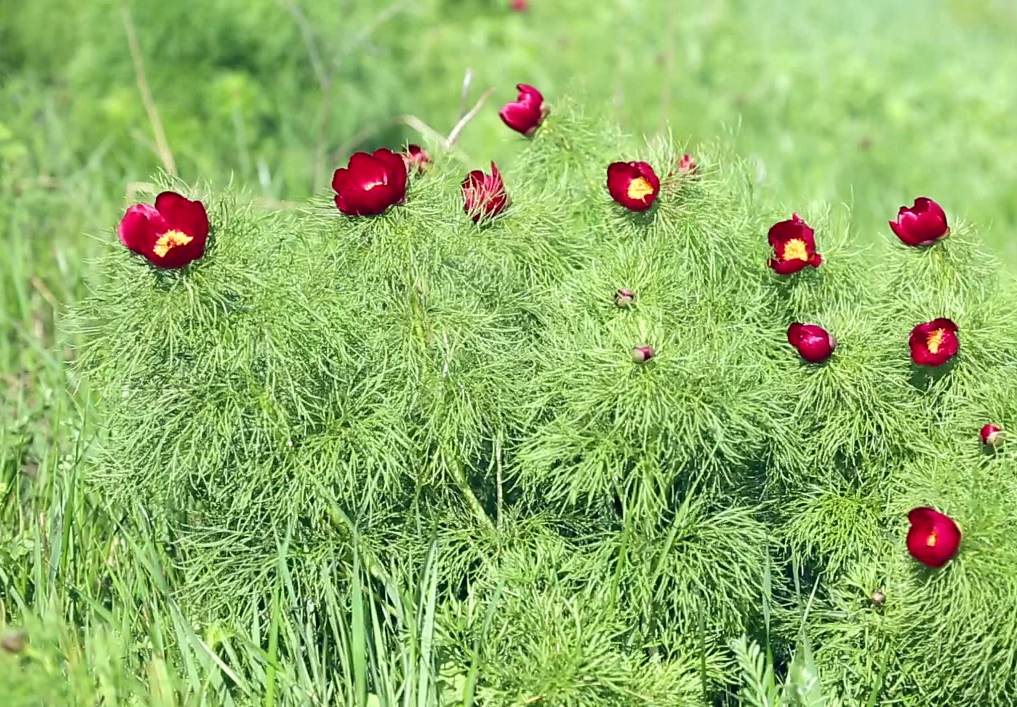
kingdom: Plantae
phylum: Tracheophyta
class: Magnoliopsida
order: Saxifragales
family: Paeoniaceae
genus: Paeonia
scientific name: Paeonia tenuifolia
